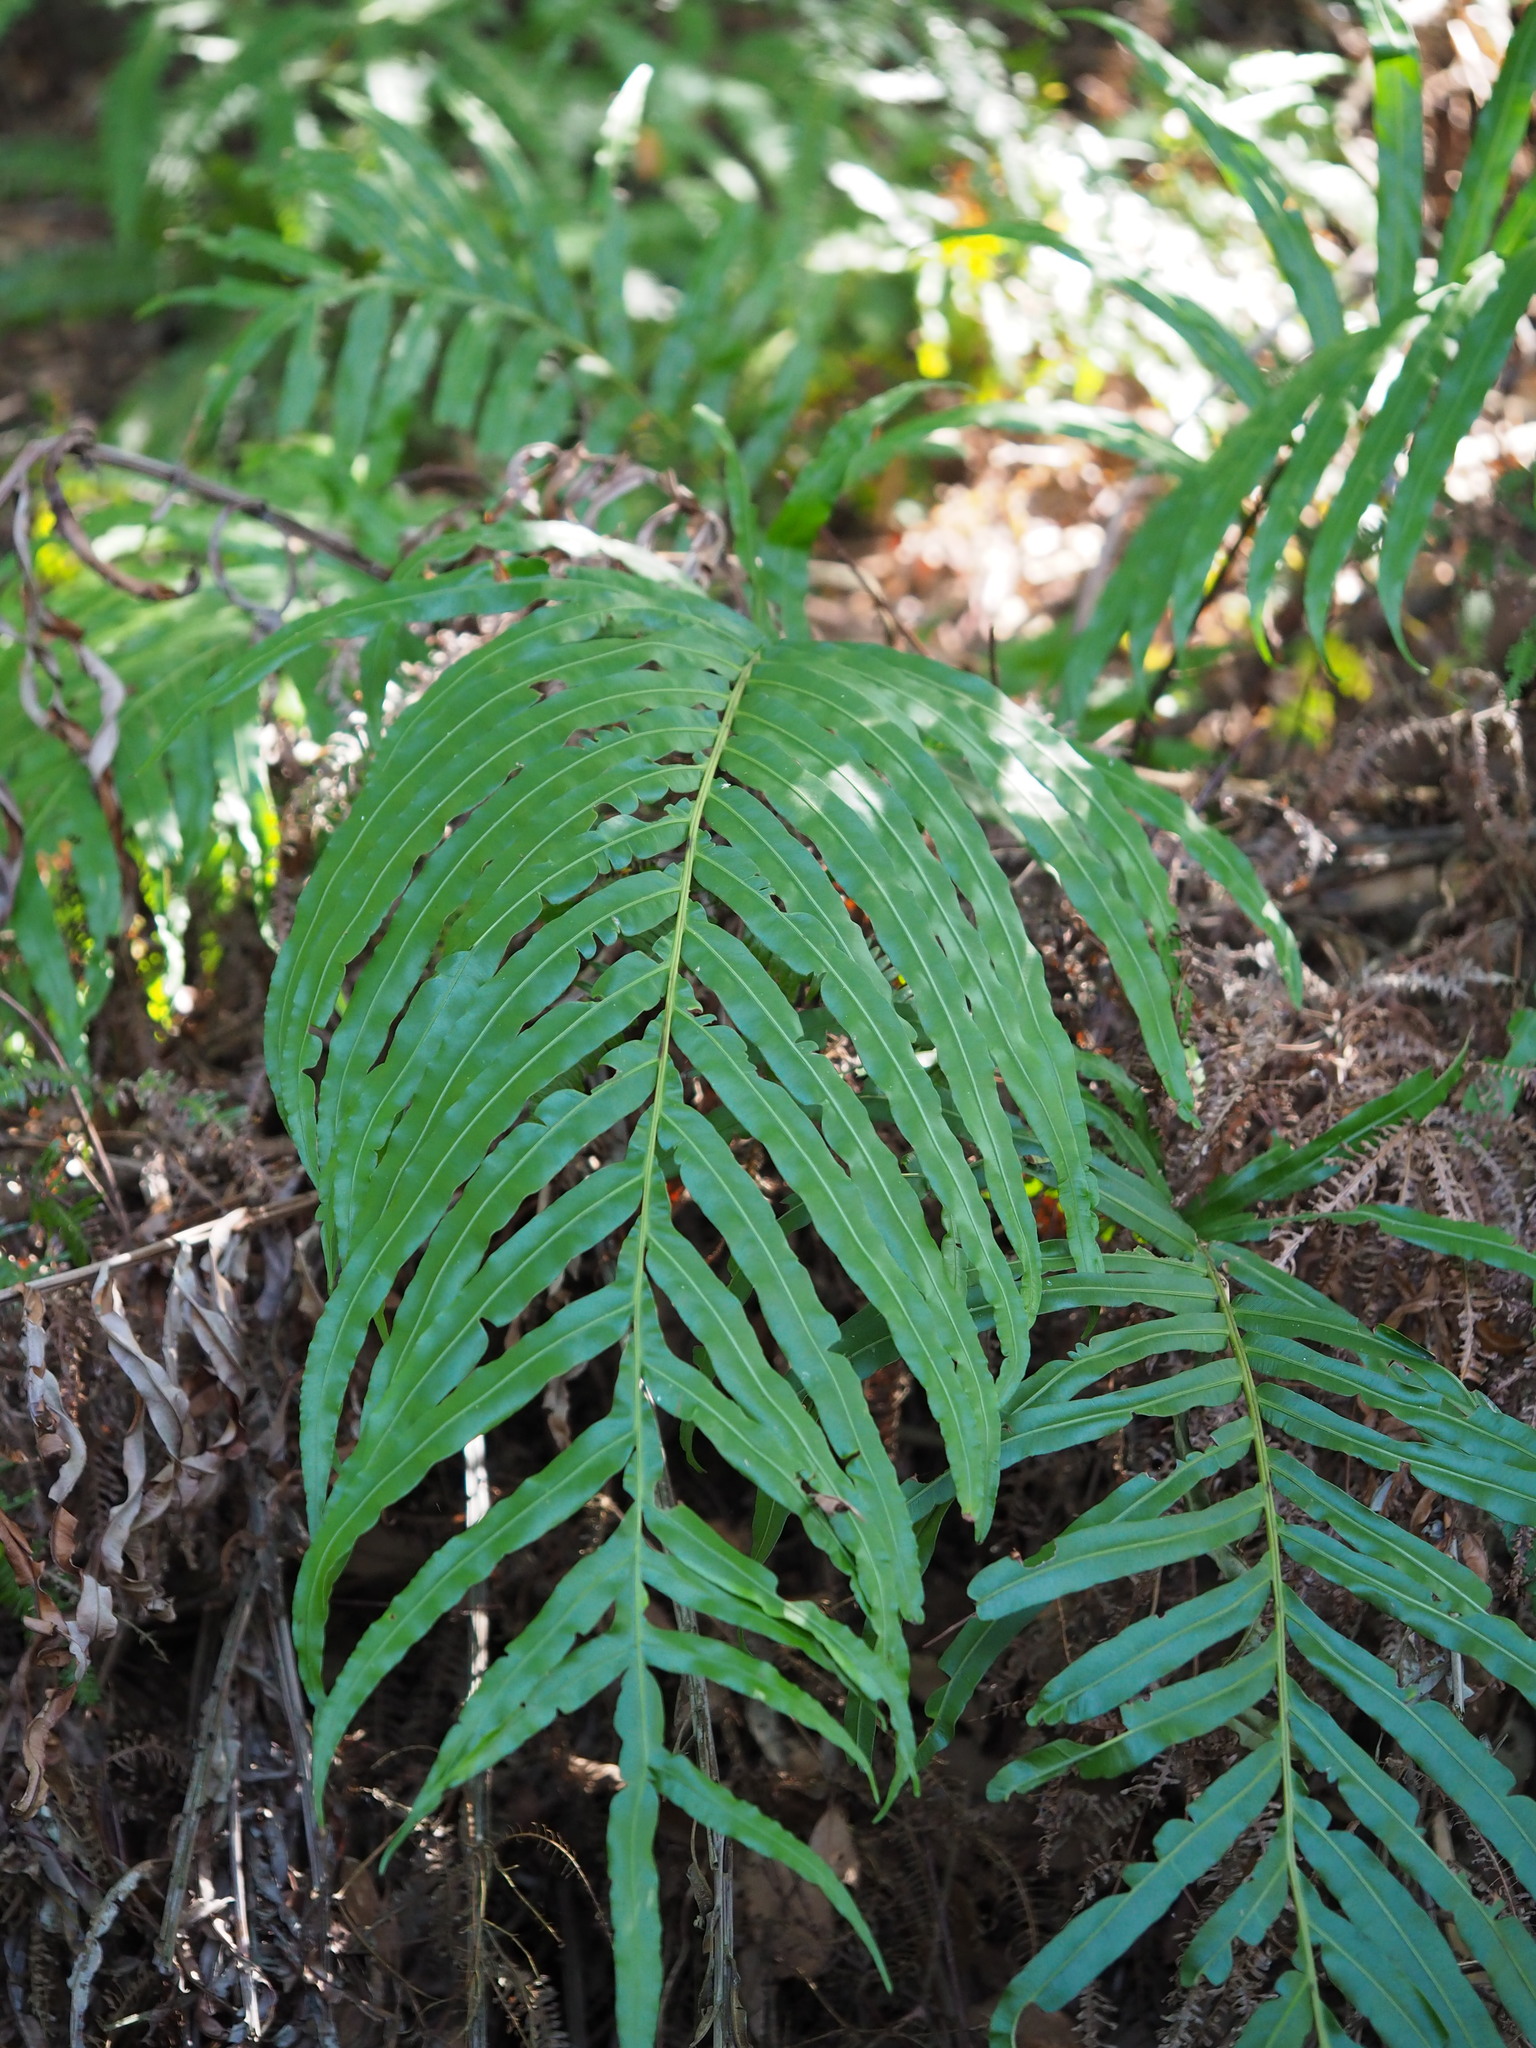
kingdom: Plantae
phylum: Tracheophyta
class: Polypodiopsida
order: Polypodiales
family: Blechnaceae
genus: Blechnopsis
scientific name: Blechnopsis orientalis
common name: Oriental blechnum
